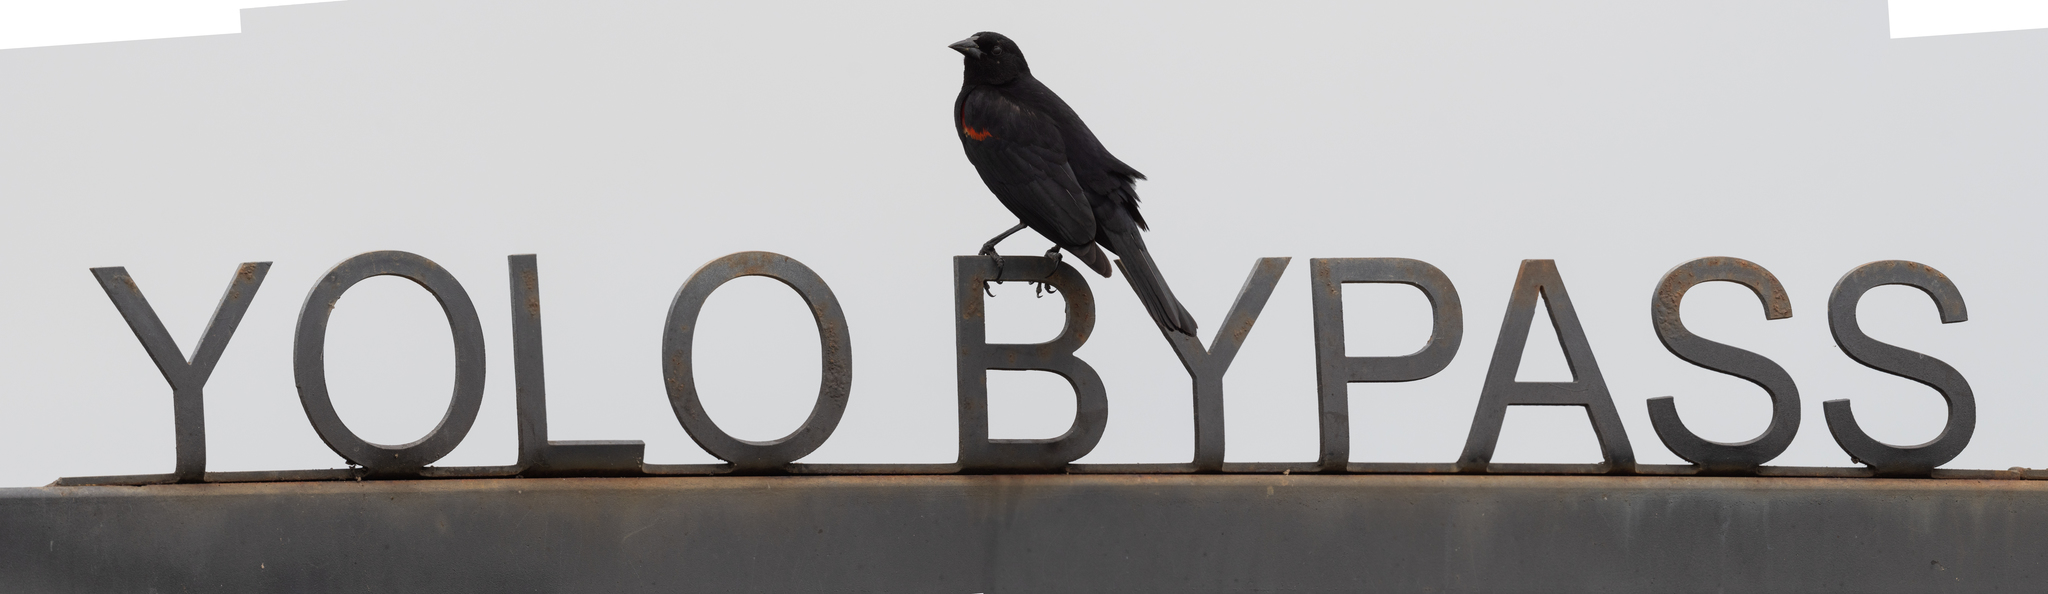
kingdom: Animalia
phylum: Chordata
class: Aves
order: Passeriformes
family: Icteridae
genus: Agelaius
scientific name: Agelaius phoeniceus
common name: Red-winged blackbird
